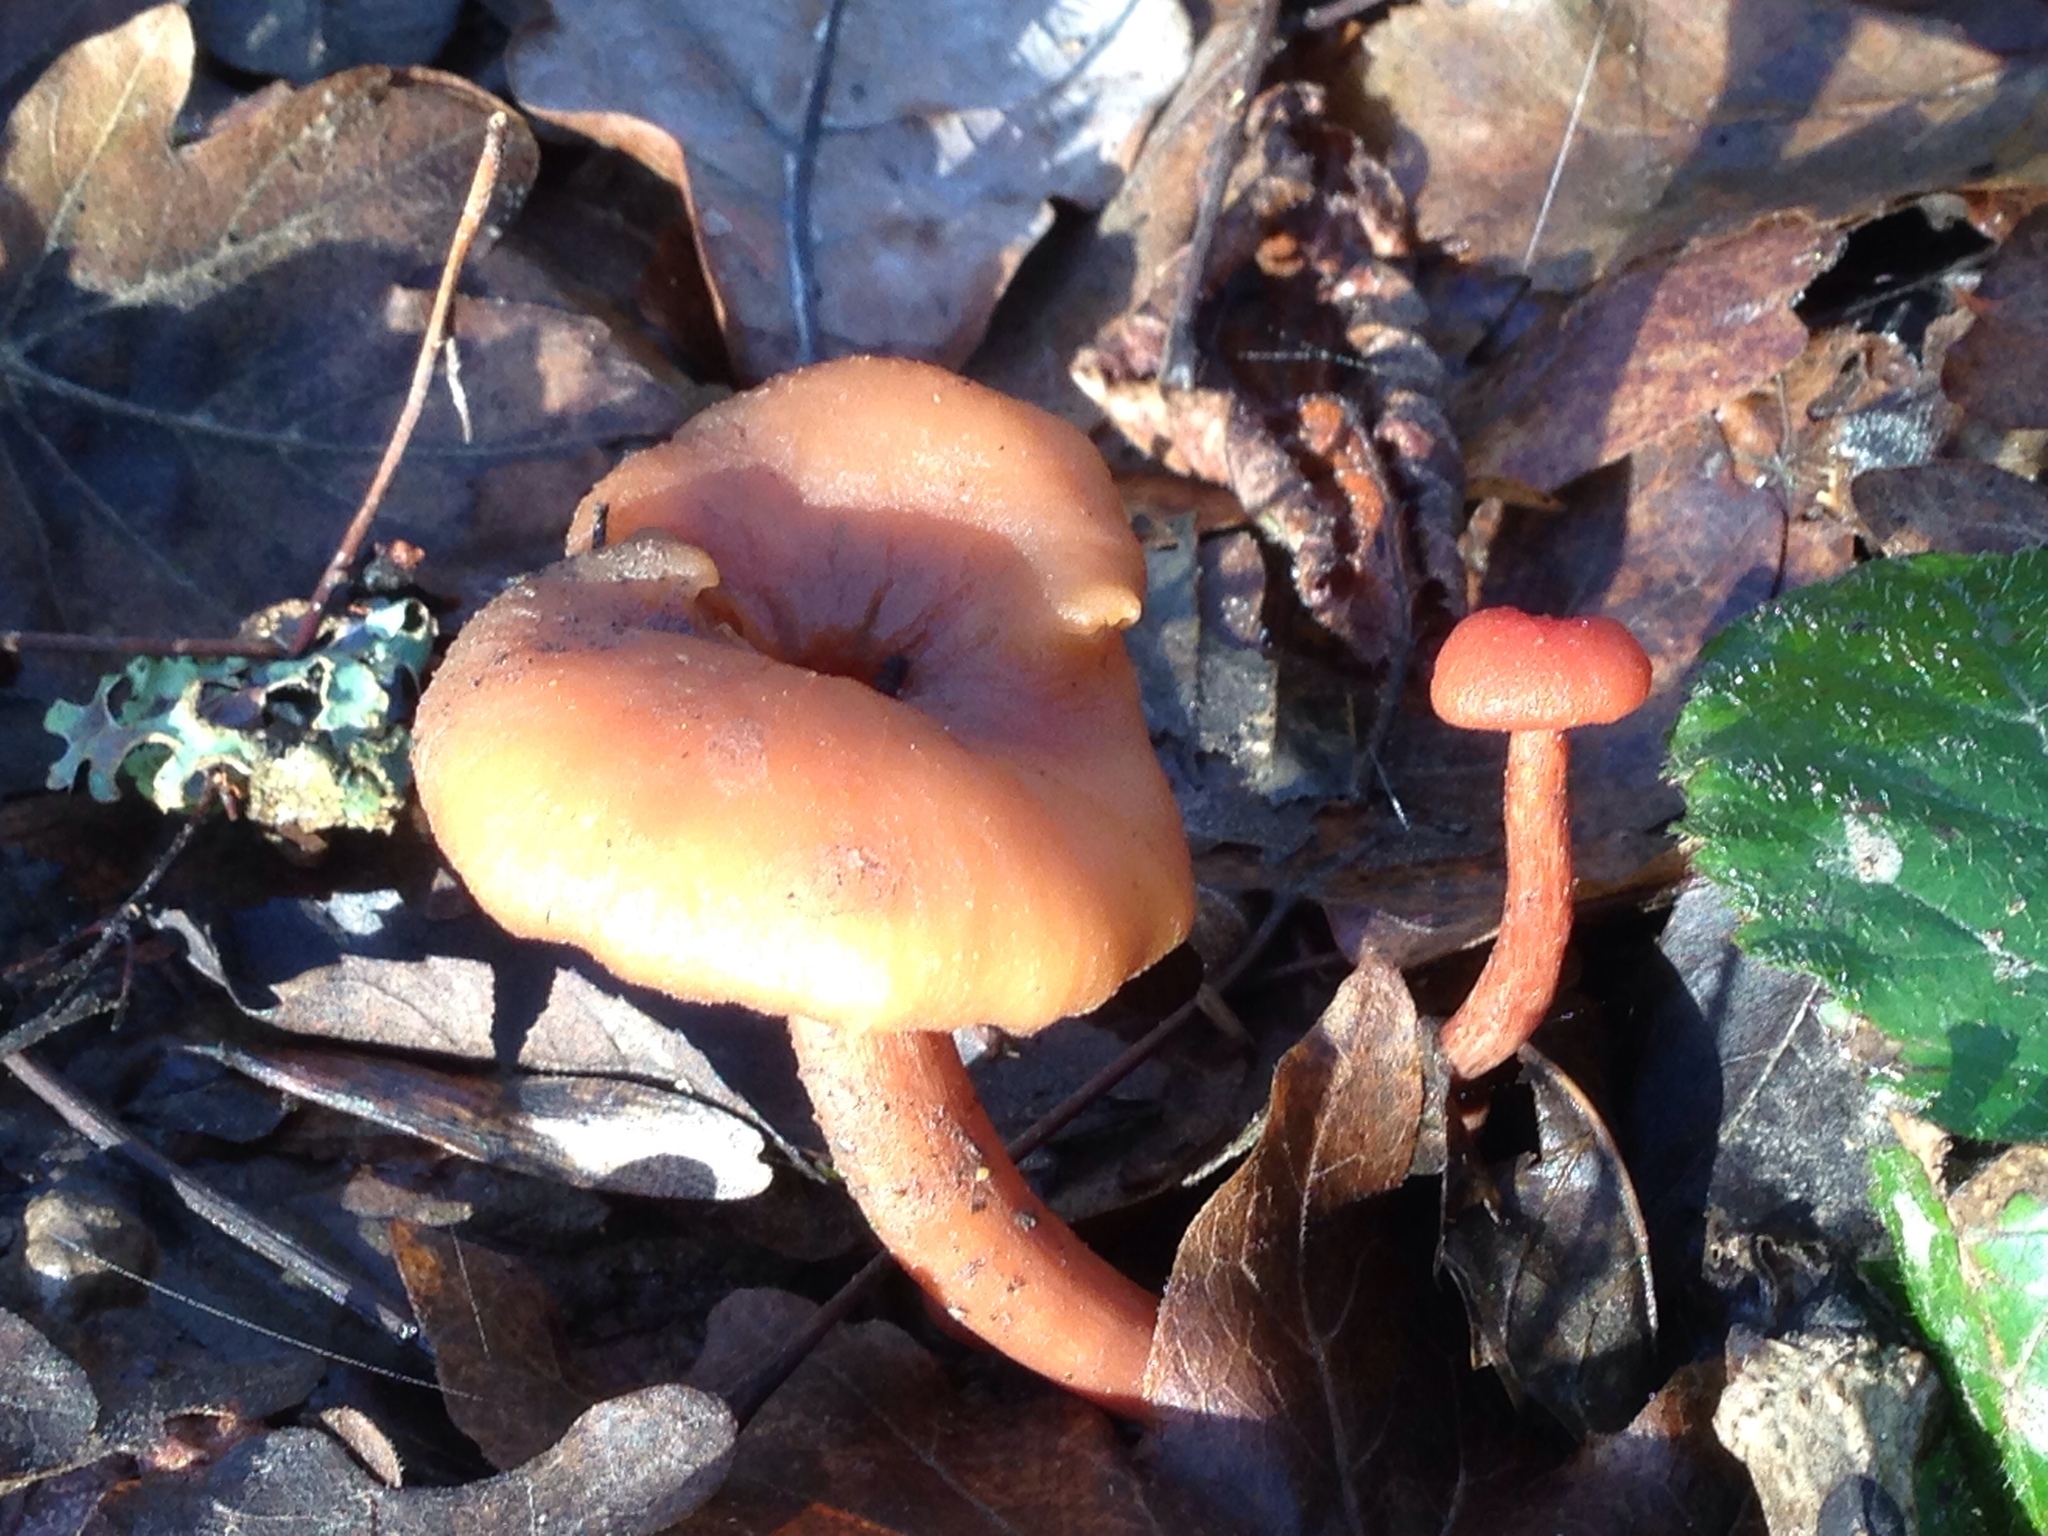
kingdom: Fungi
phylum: Basidiomycota
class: Agaricomycetes
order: Agaricales
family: Hydnangiaceae
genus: Laccaria
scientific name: Laccaria laccata
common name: Deceiver
